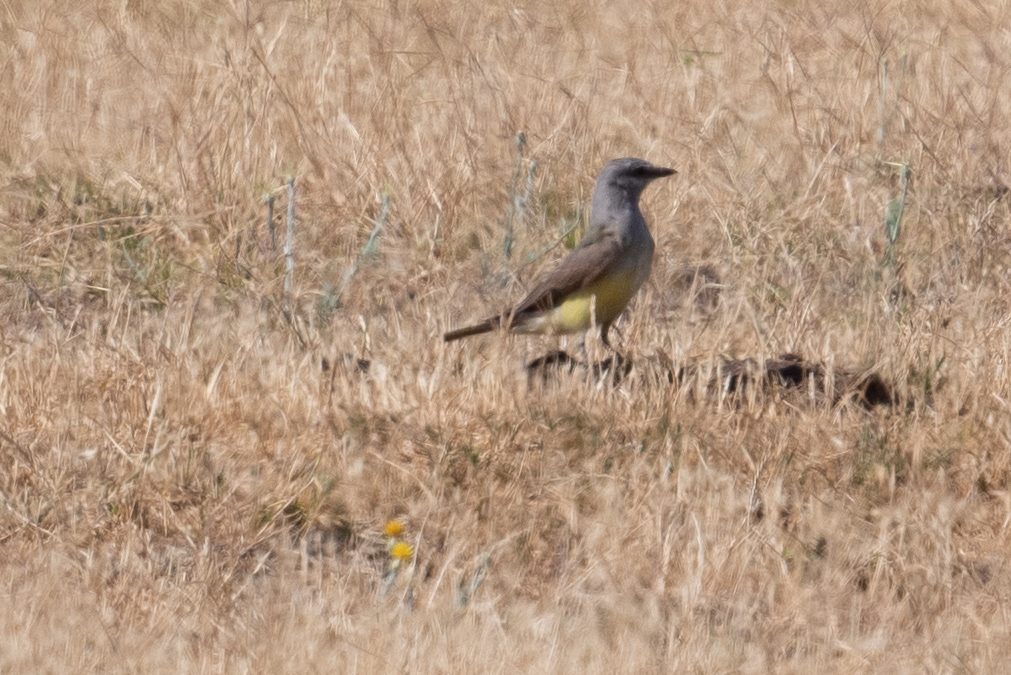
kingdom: Animalia
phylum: Chordata
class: Aves
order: Passeriformes
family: Tyrannidae
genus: Tyrannus
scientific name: Tyrannus verticalis
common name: Western kingbird
